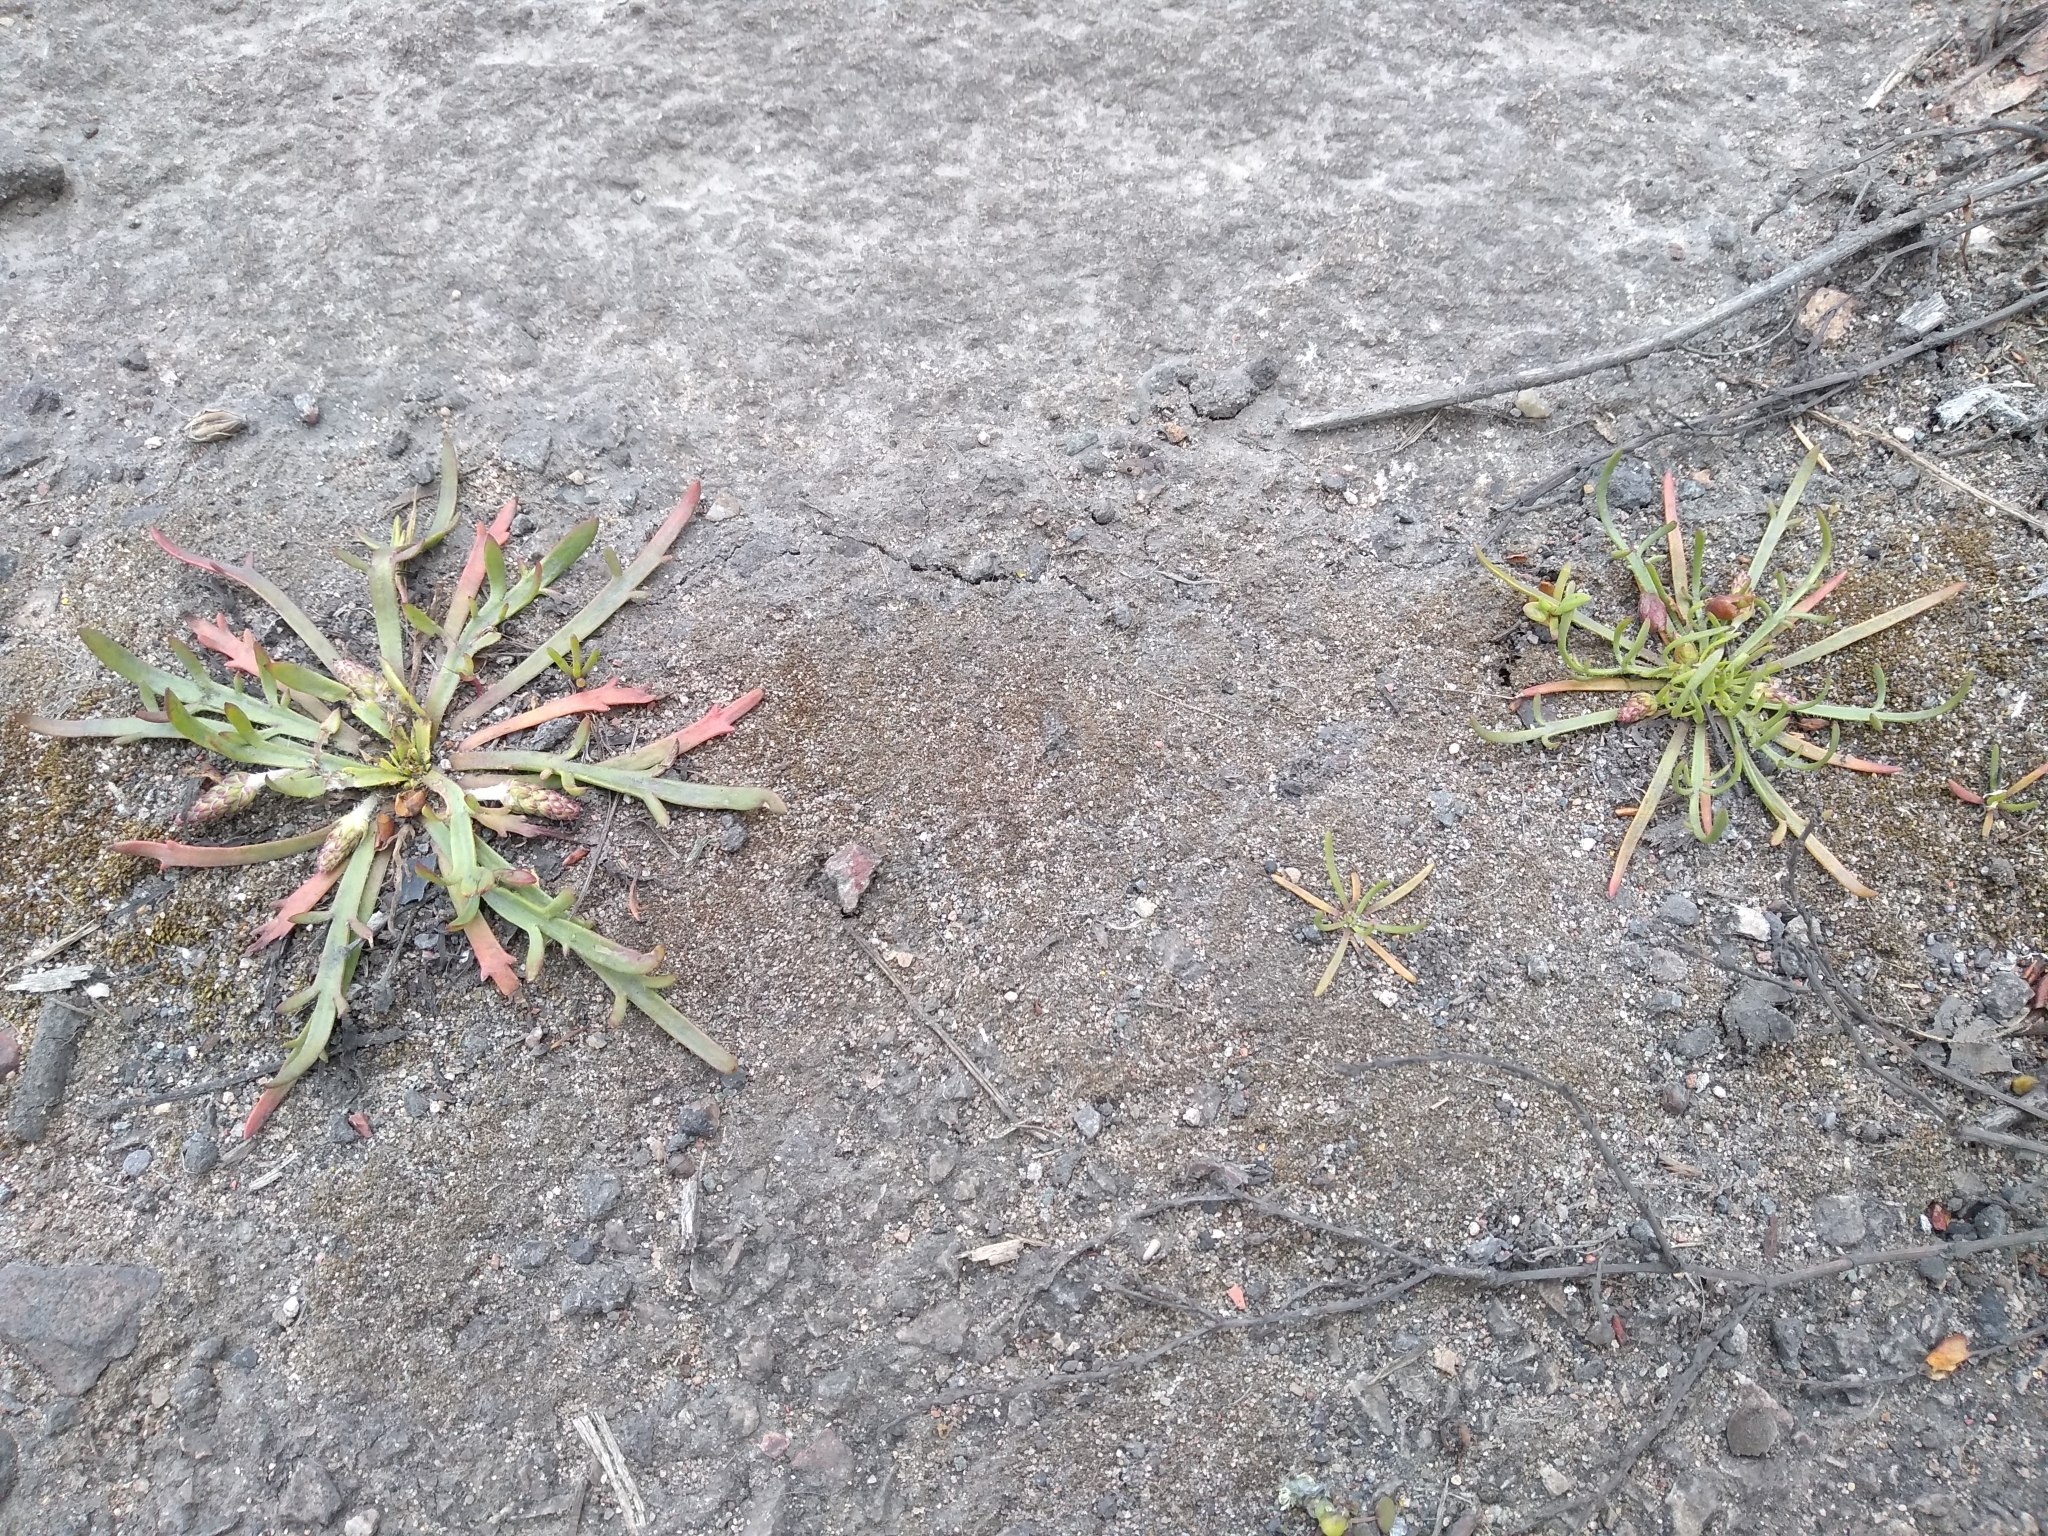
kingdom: Plantae
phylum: Tracheophyta
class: Magnoliopsida
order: Lamiales
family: Plantaginaceae
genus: Plantago
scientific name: Plantago coronopus
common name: Buck's-horn plantain
